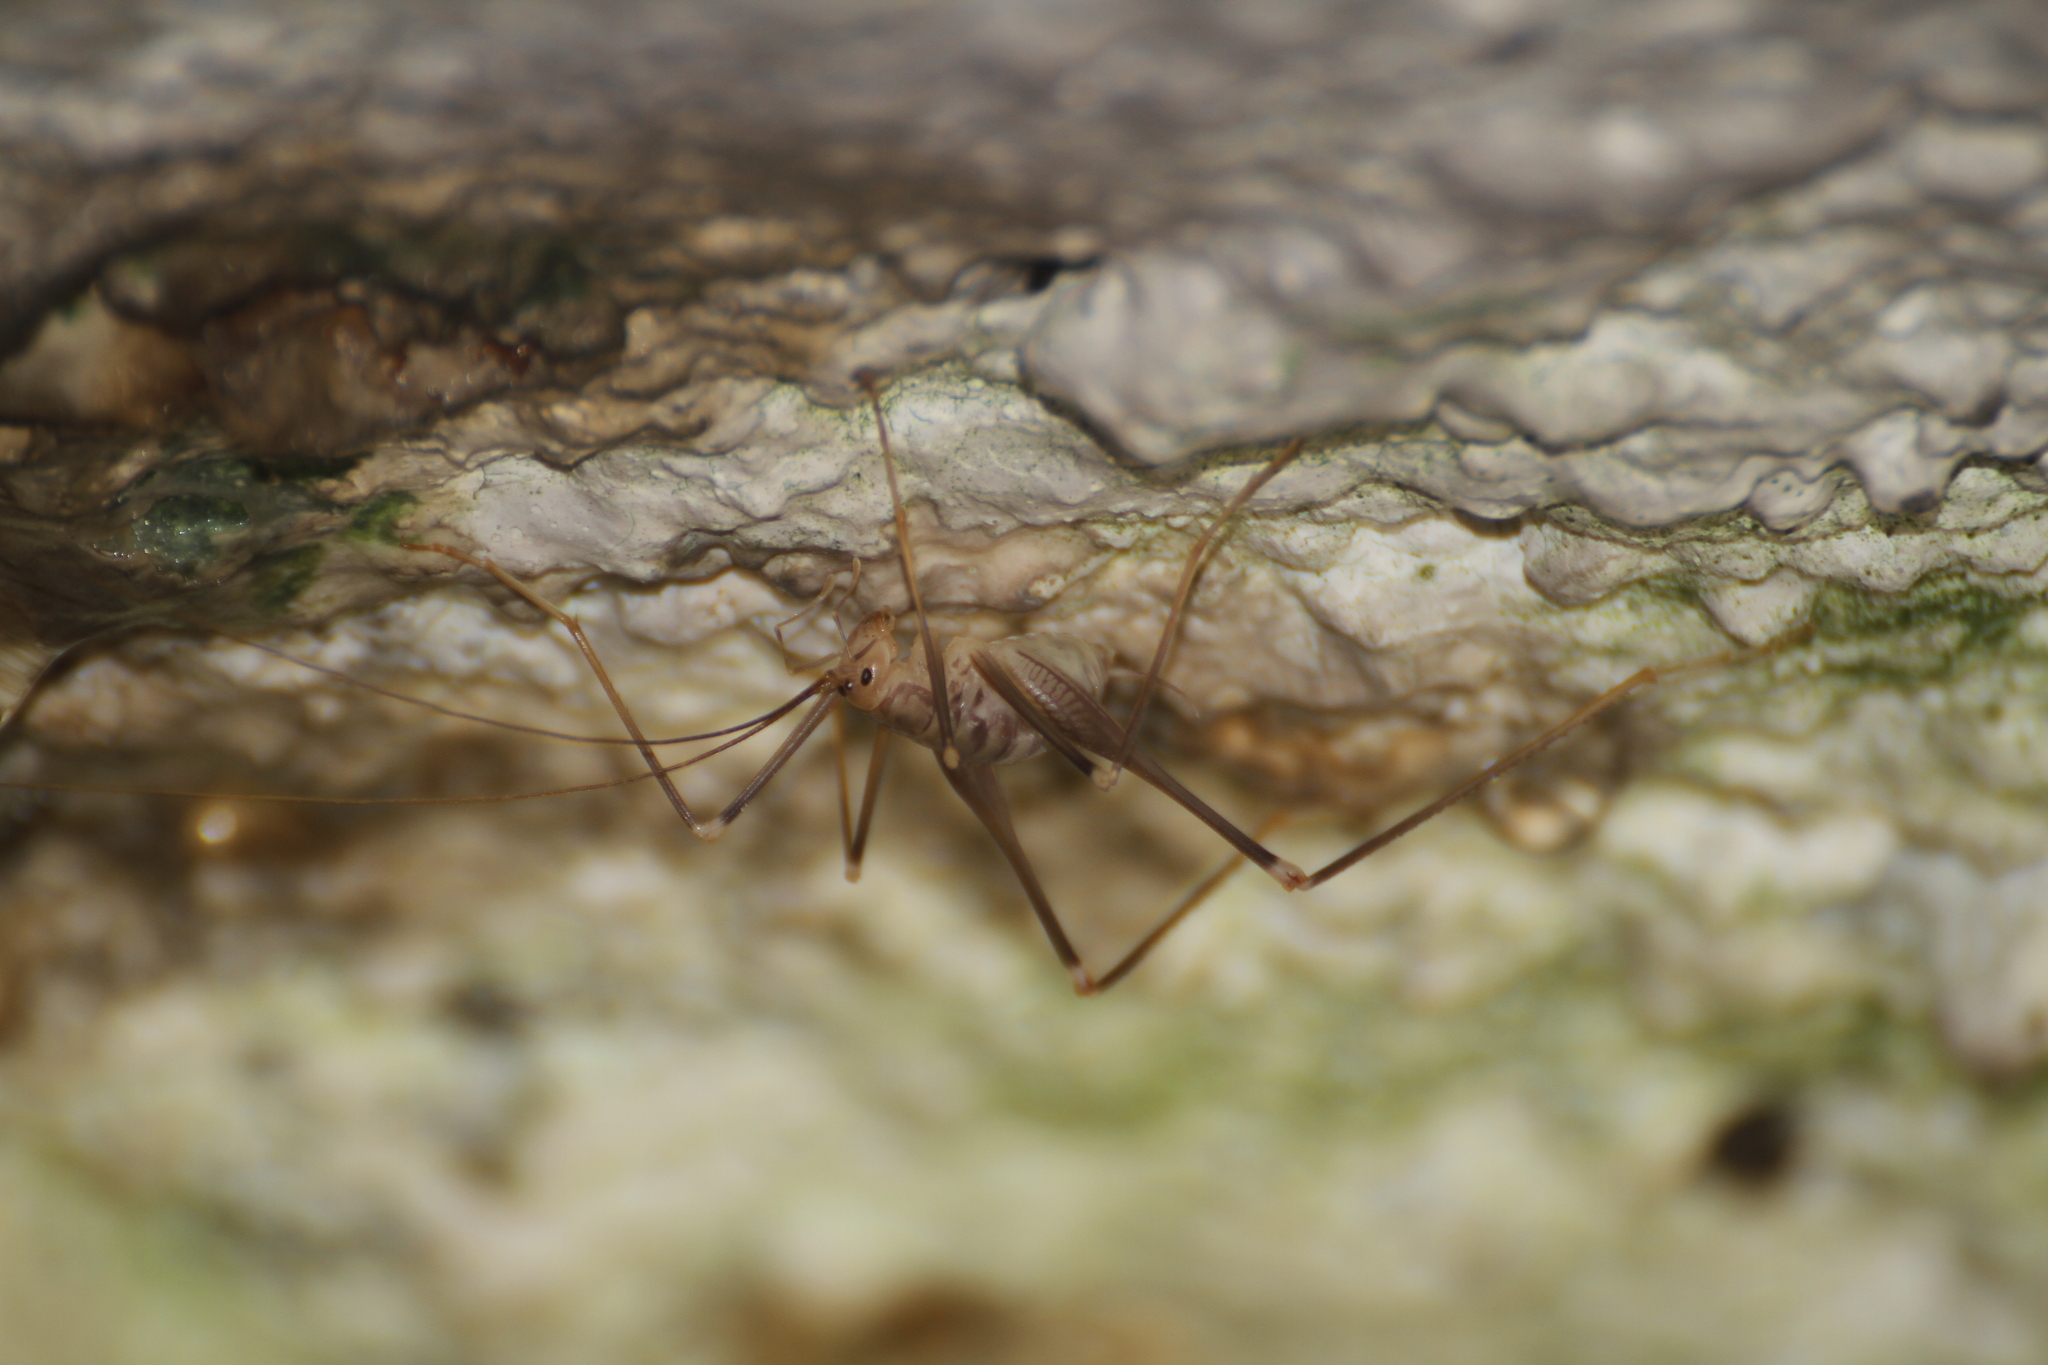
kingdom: Animalia
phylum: Arthropoda
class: Insecta
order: Orthoptera
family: Rhaphidophoridae
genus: Dolichopoda
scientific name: Dolichopoda azami
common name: Azam's cave-cricket
